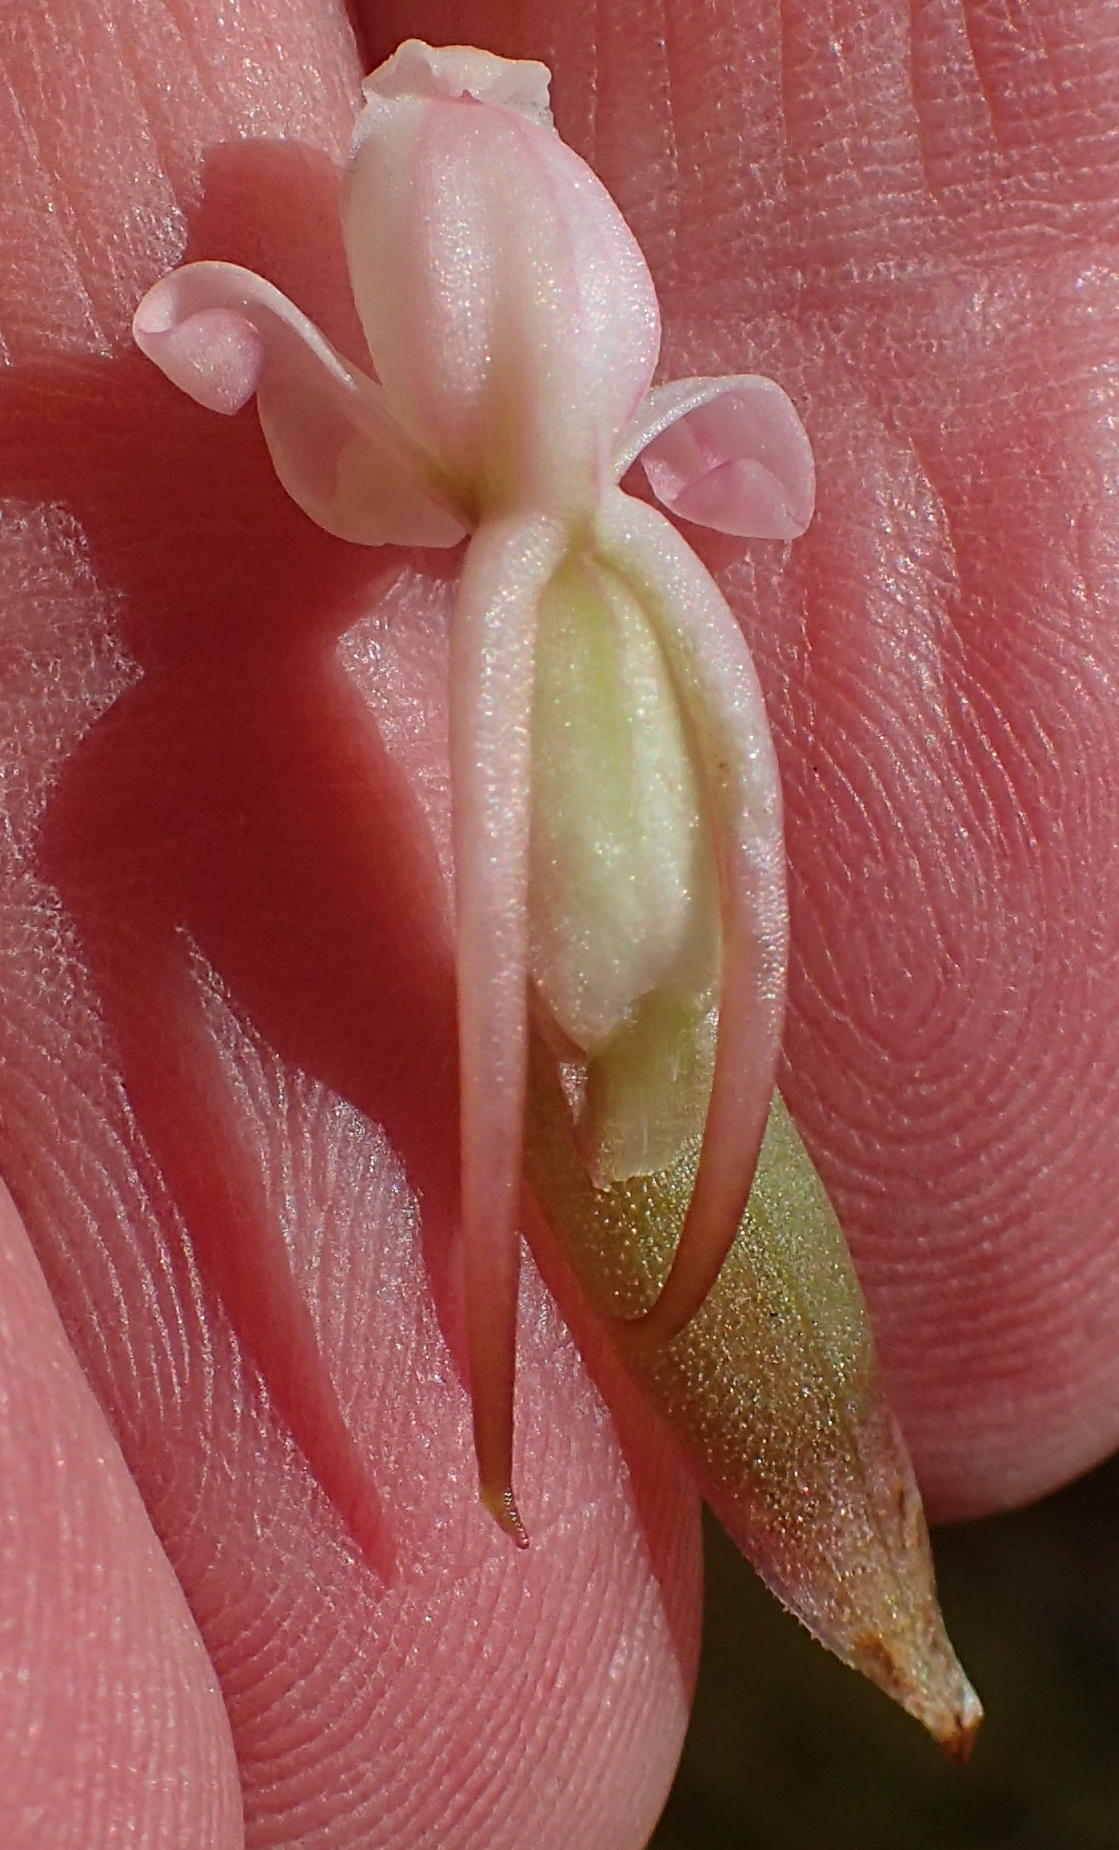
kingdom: Plantae
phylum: Tracheophyta
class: Liliopsida
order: Asparagales
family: Orchidaceae
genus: Satyrium
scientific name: Satyrium acuminatum
